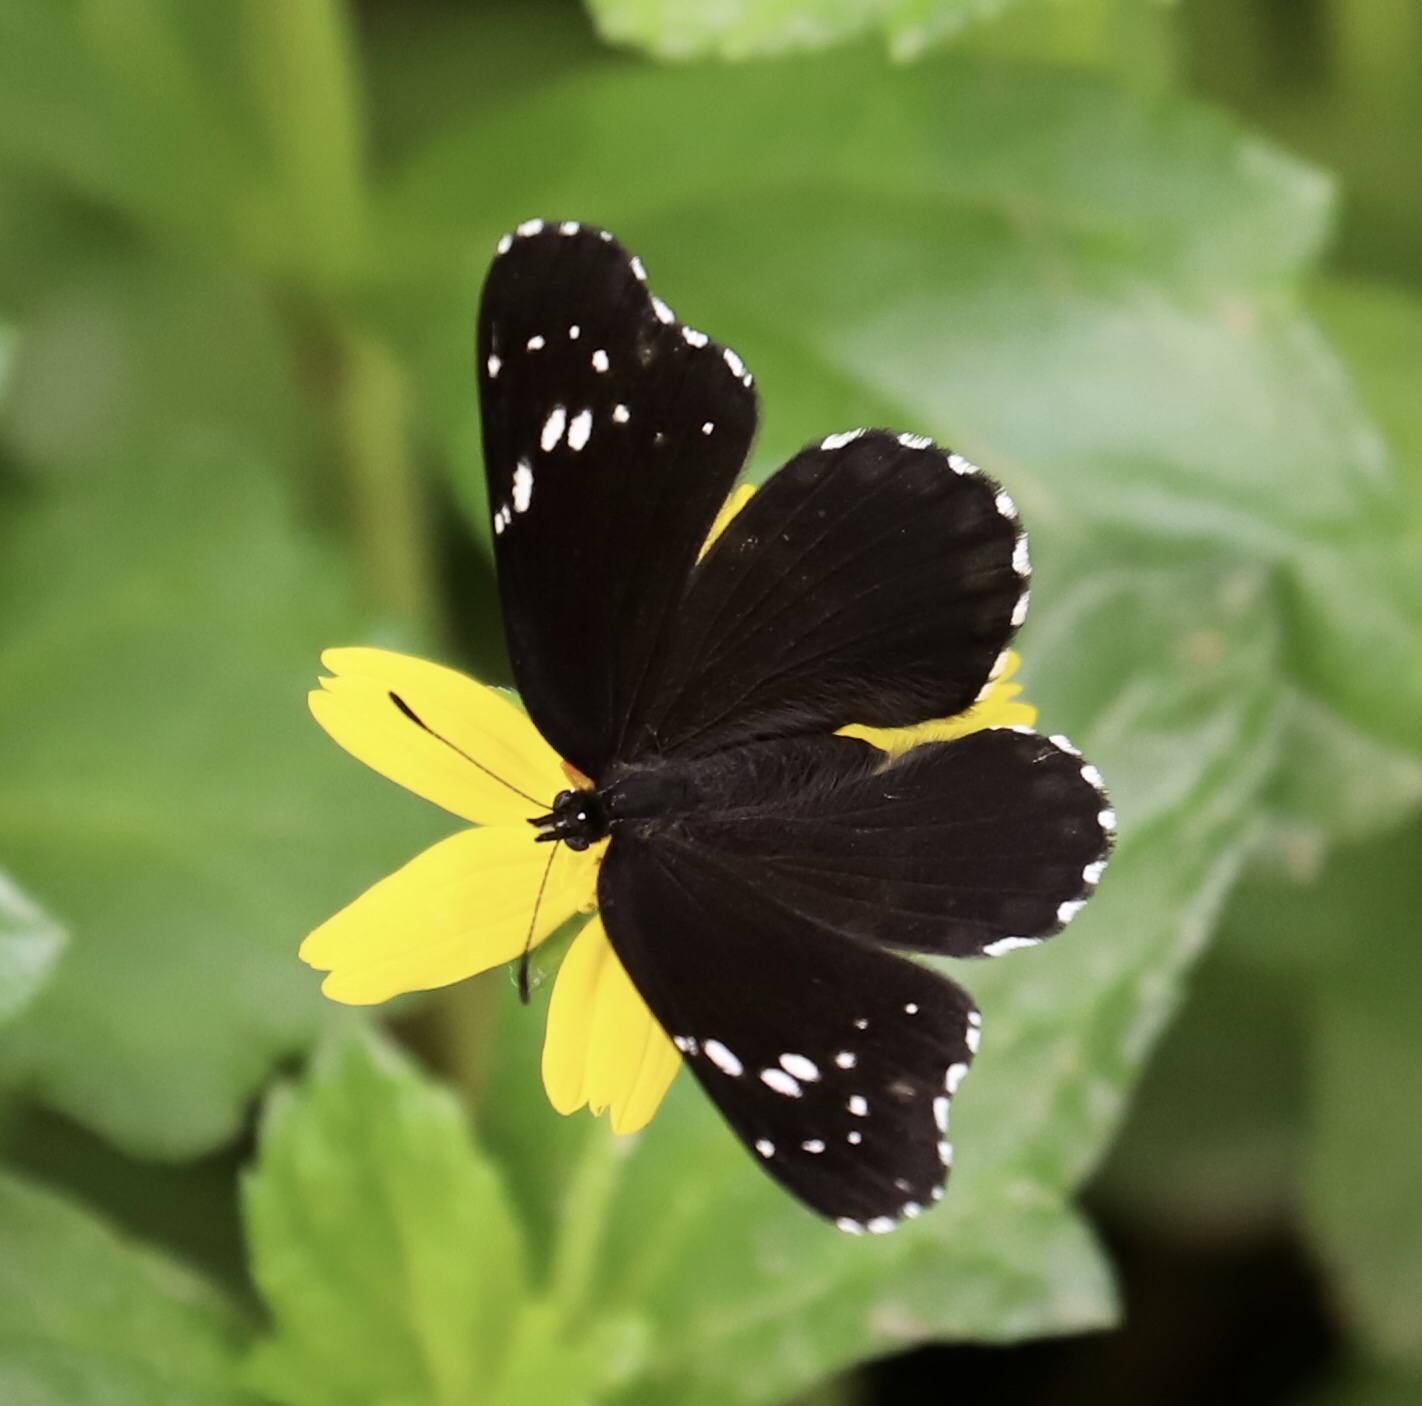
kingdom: Animalia
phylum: Arthropoda
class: Insecta
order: Lepidoptera
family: Nymphalidae
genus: Chlosyne
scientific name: Chlosyne lacinia
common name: Bordered patch
